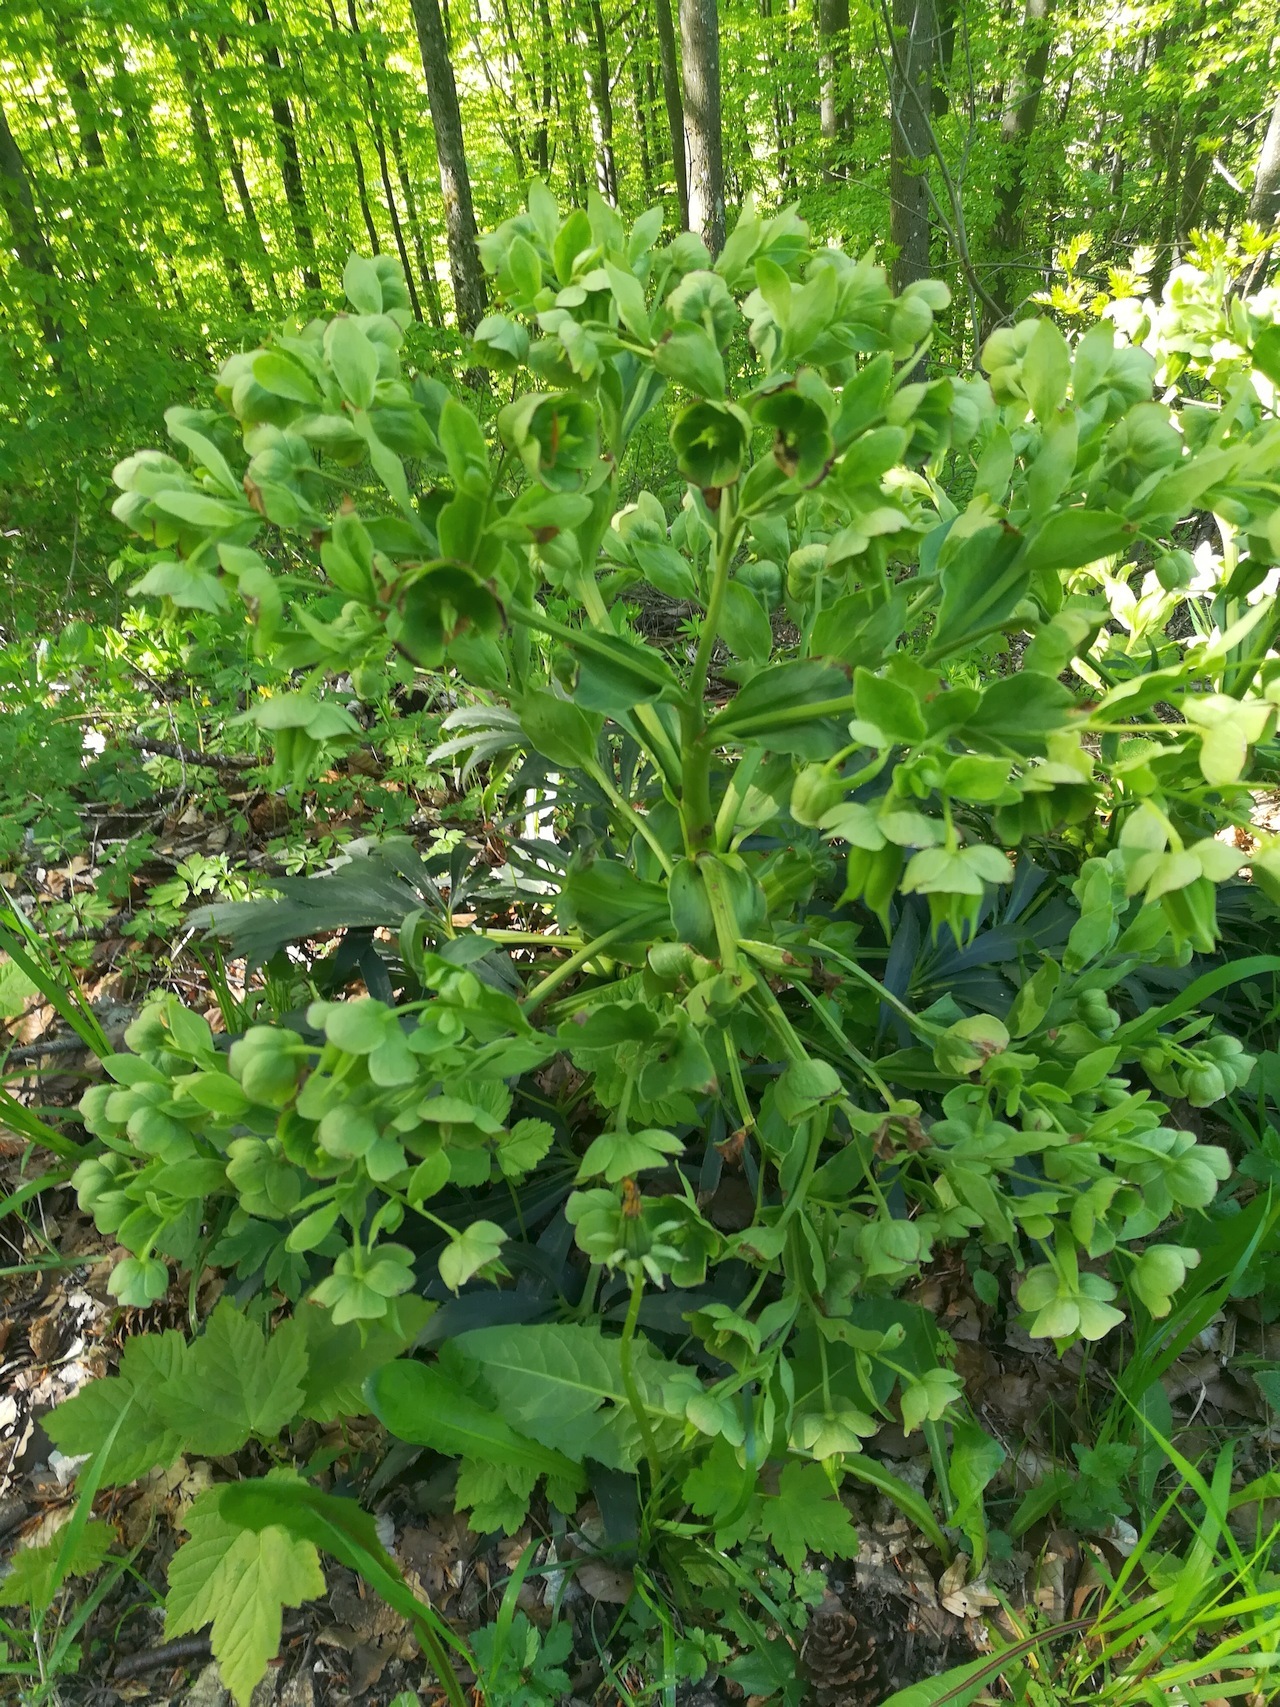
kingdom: Plantae
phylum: Tracheophyta
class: Magnoliopsida
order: Ranunculales
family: Ranunculaceae
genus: Helleborus
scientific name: Helleborus foetidus
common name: Stinking hellebore
